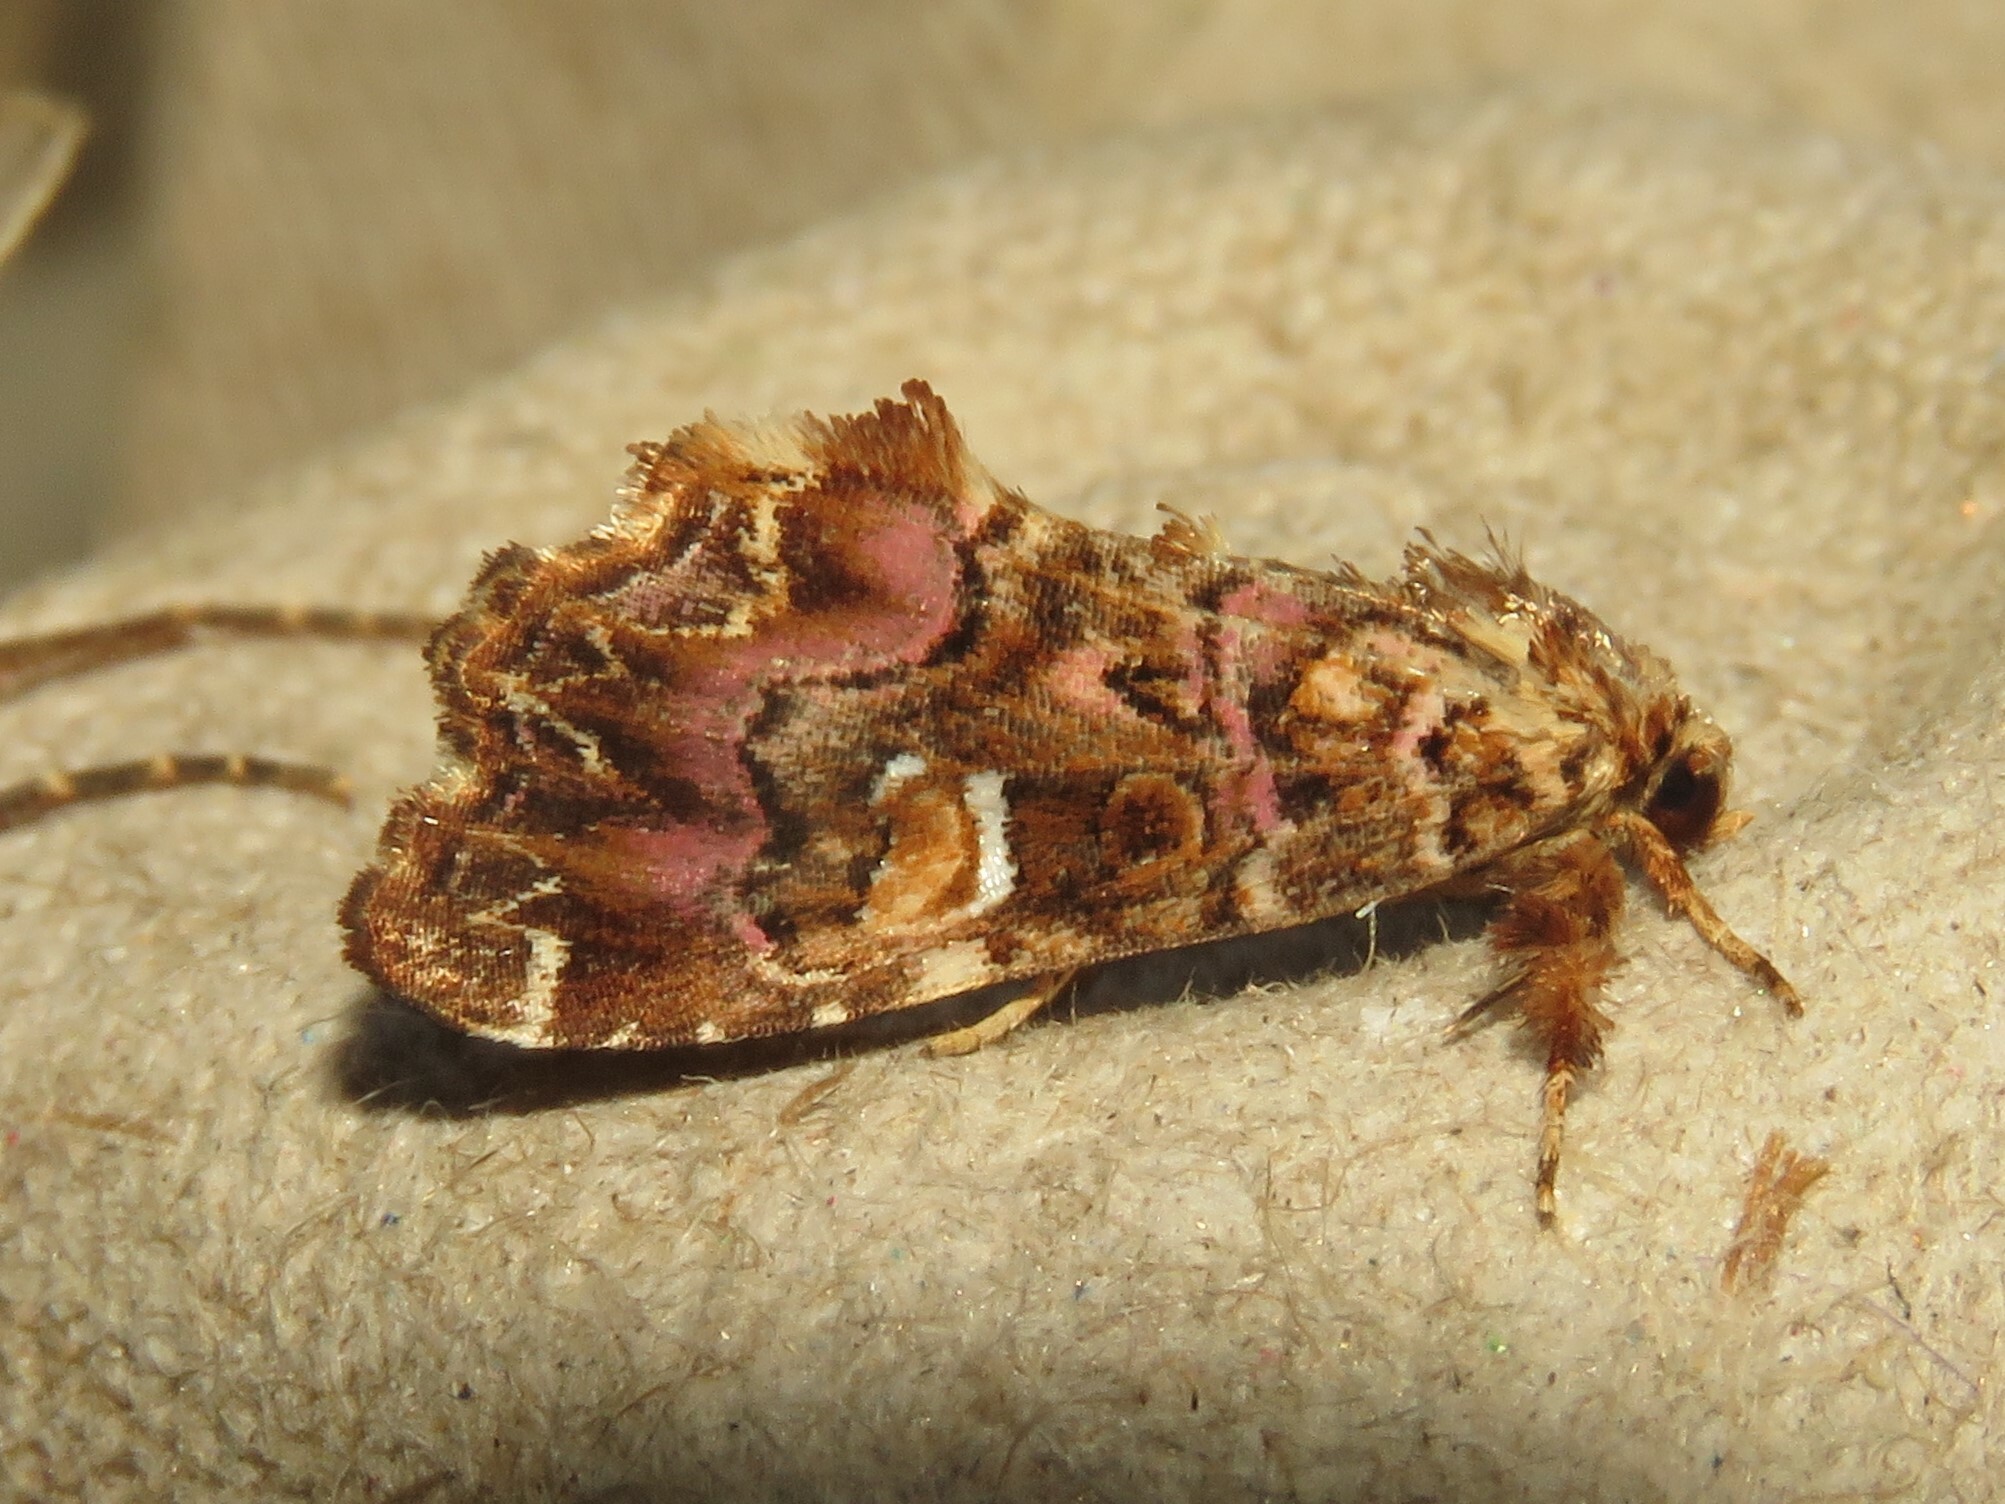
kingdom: Animalia
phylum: Arthropoda
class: Insecta
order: Lepidoptera
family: Noctuidae
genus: Callopistria
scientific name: Callopistria mollissima
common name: Pink-shaded fern moth
